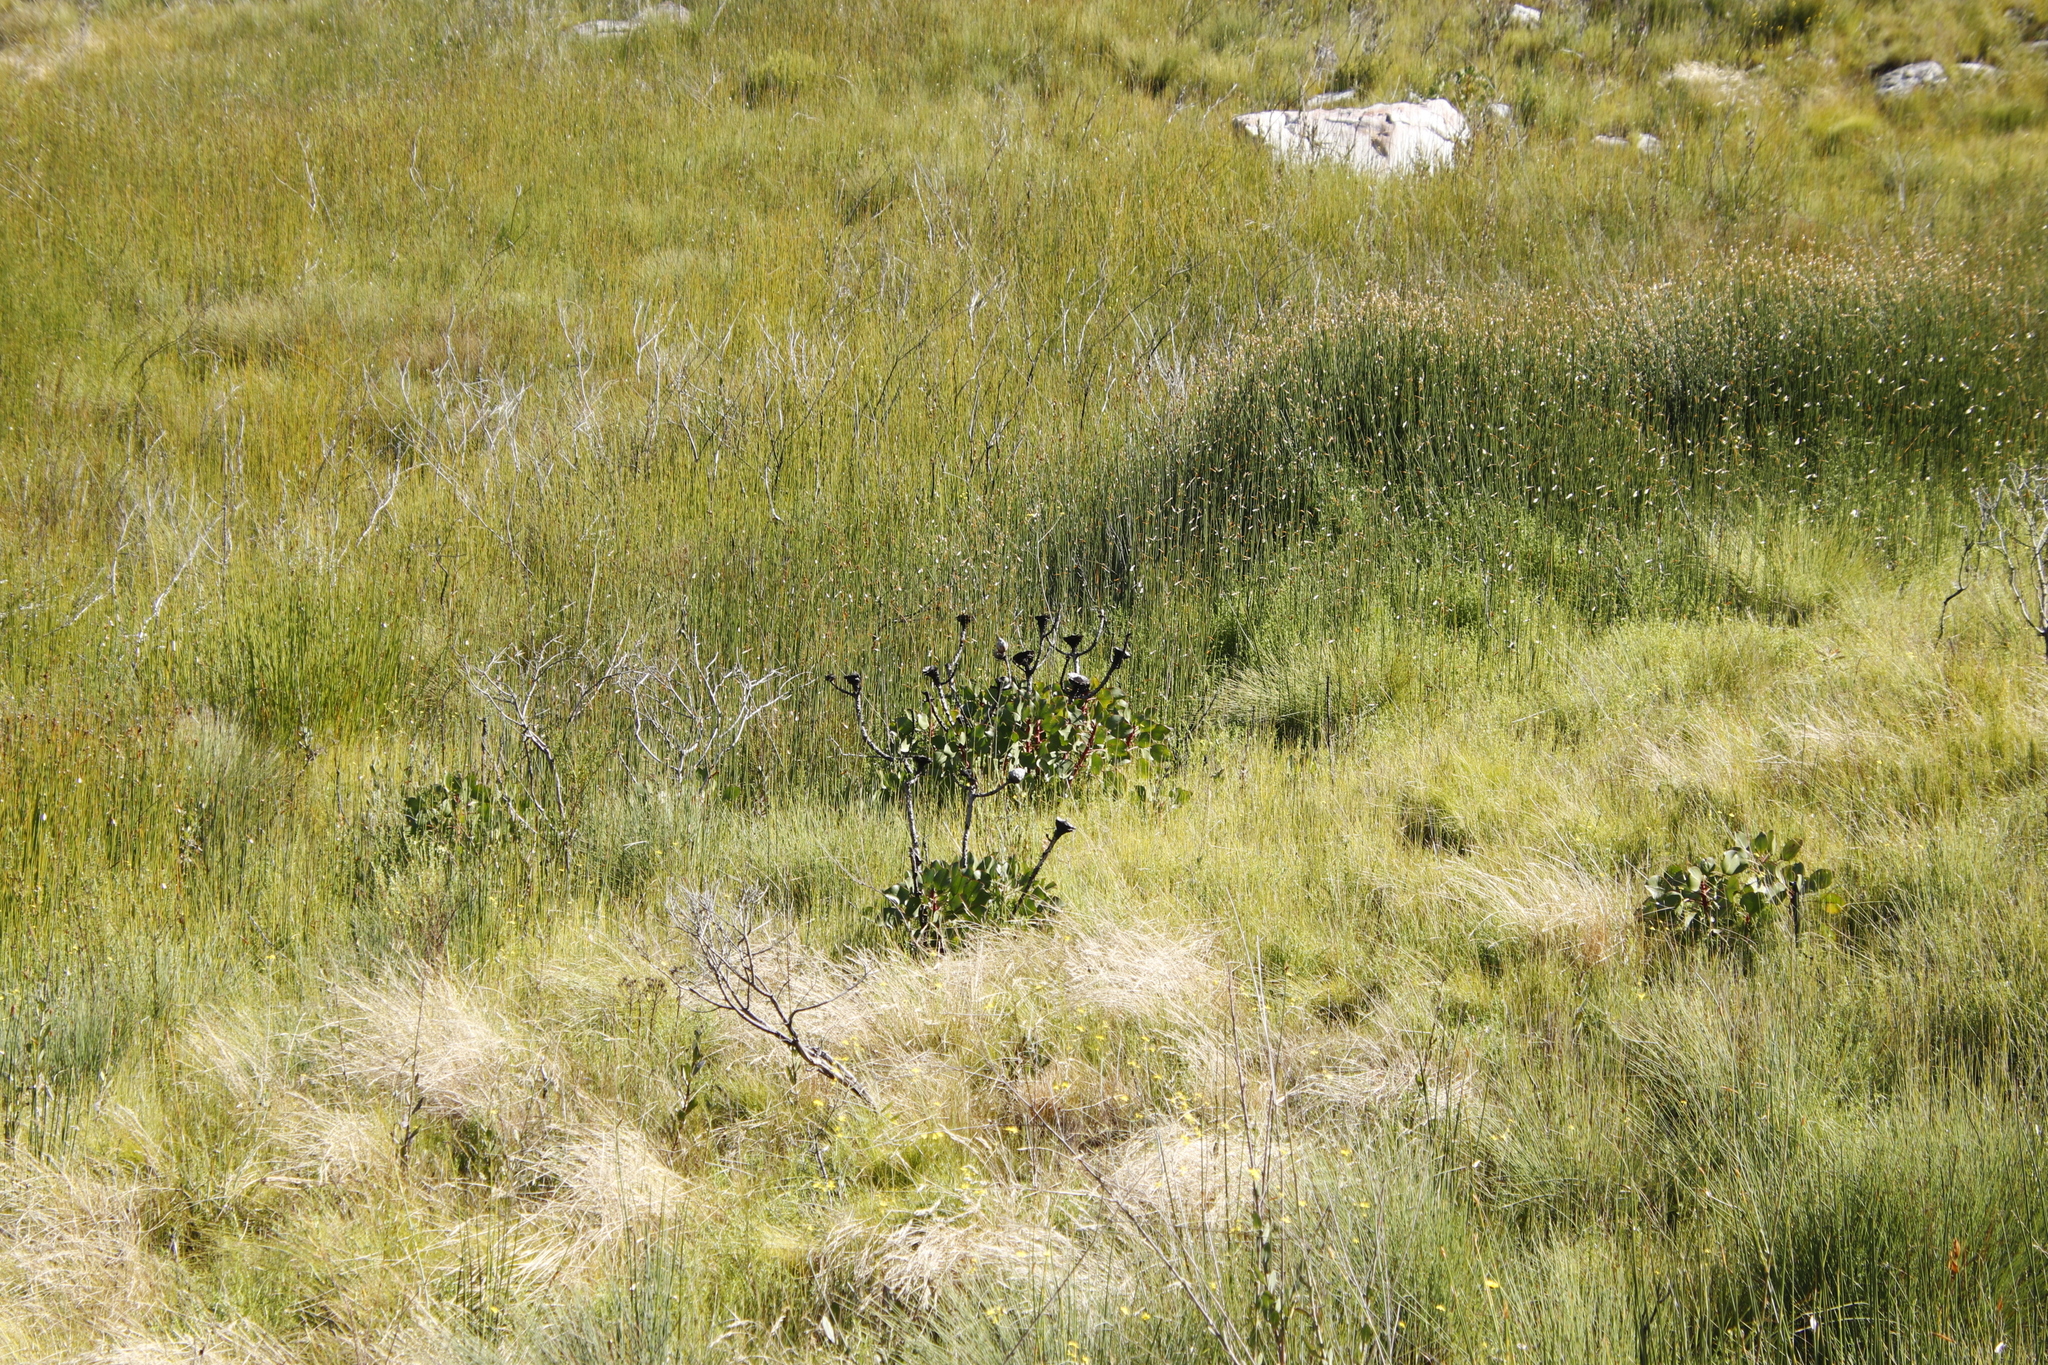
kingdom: Plantae
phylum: Tracheophyta
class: Magnoliopsida
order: Proteales
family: Proteaceae
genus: Protea
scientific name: Protea cynaroides
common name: King protea
